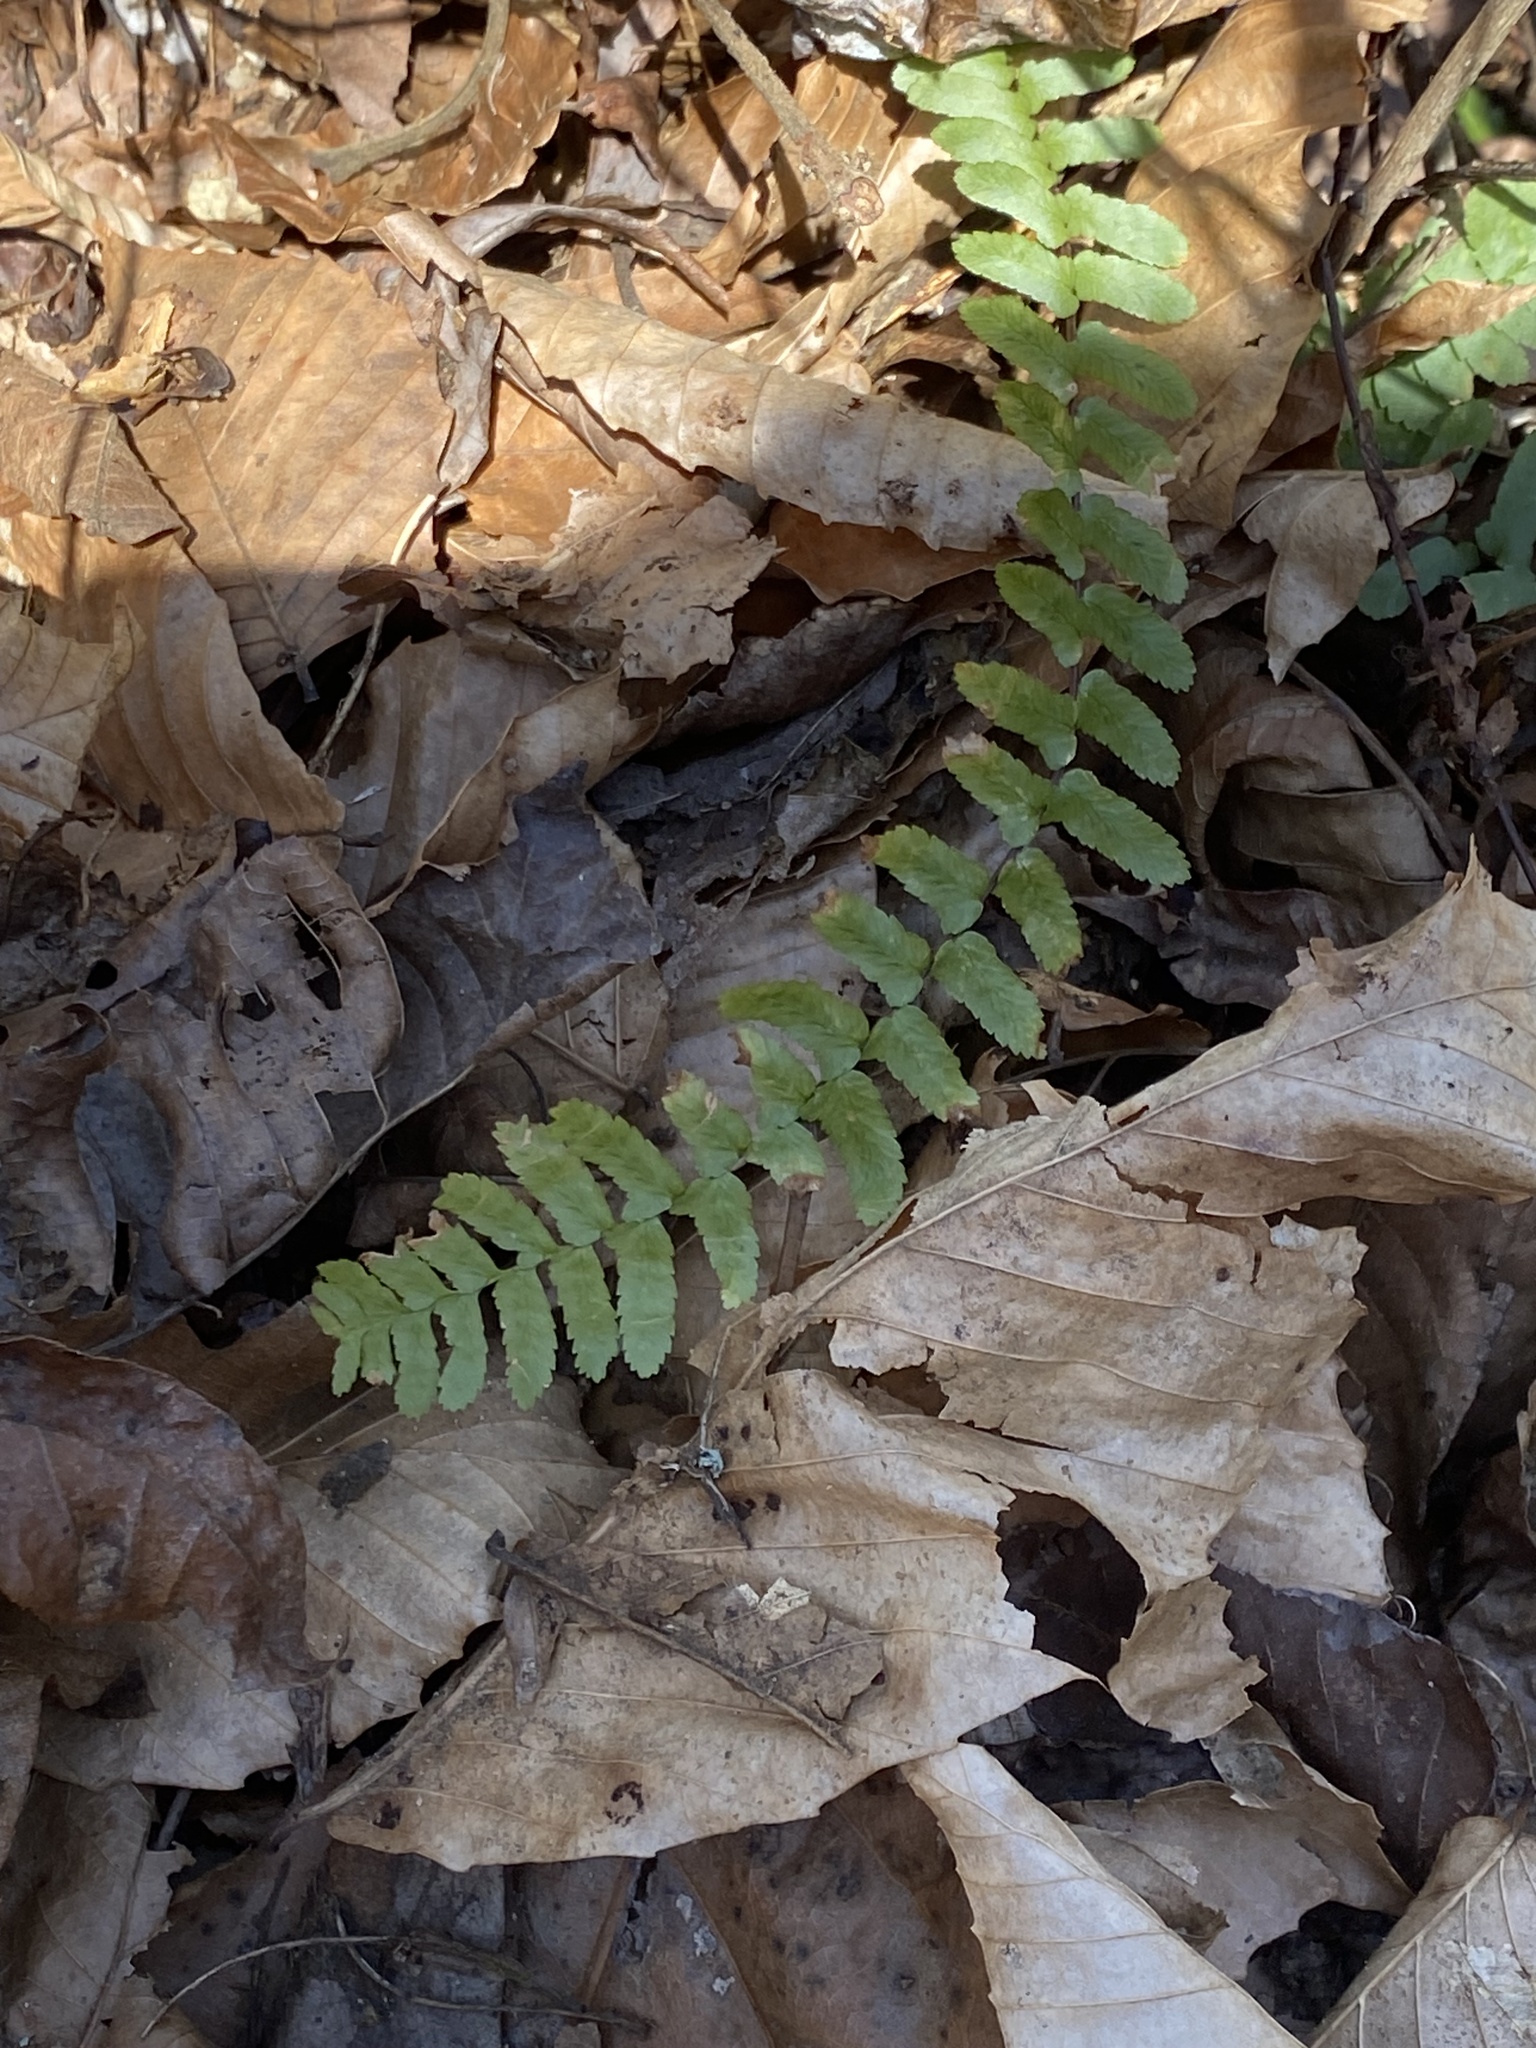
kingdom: Plantae
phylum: Tracheophyta
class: Polypodiopsida
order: Polypodiales
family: Aspleniaceae
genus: Asplenium
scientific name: Asplenium platyneuron
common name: Ebony spleenwort
